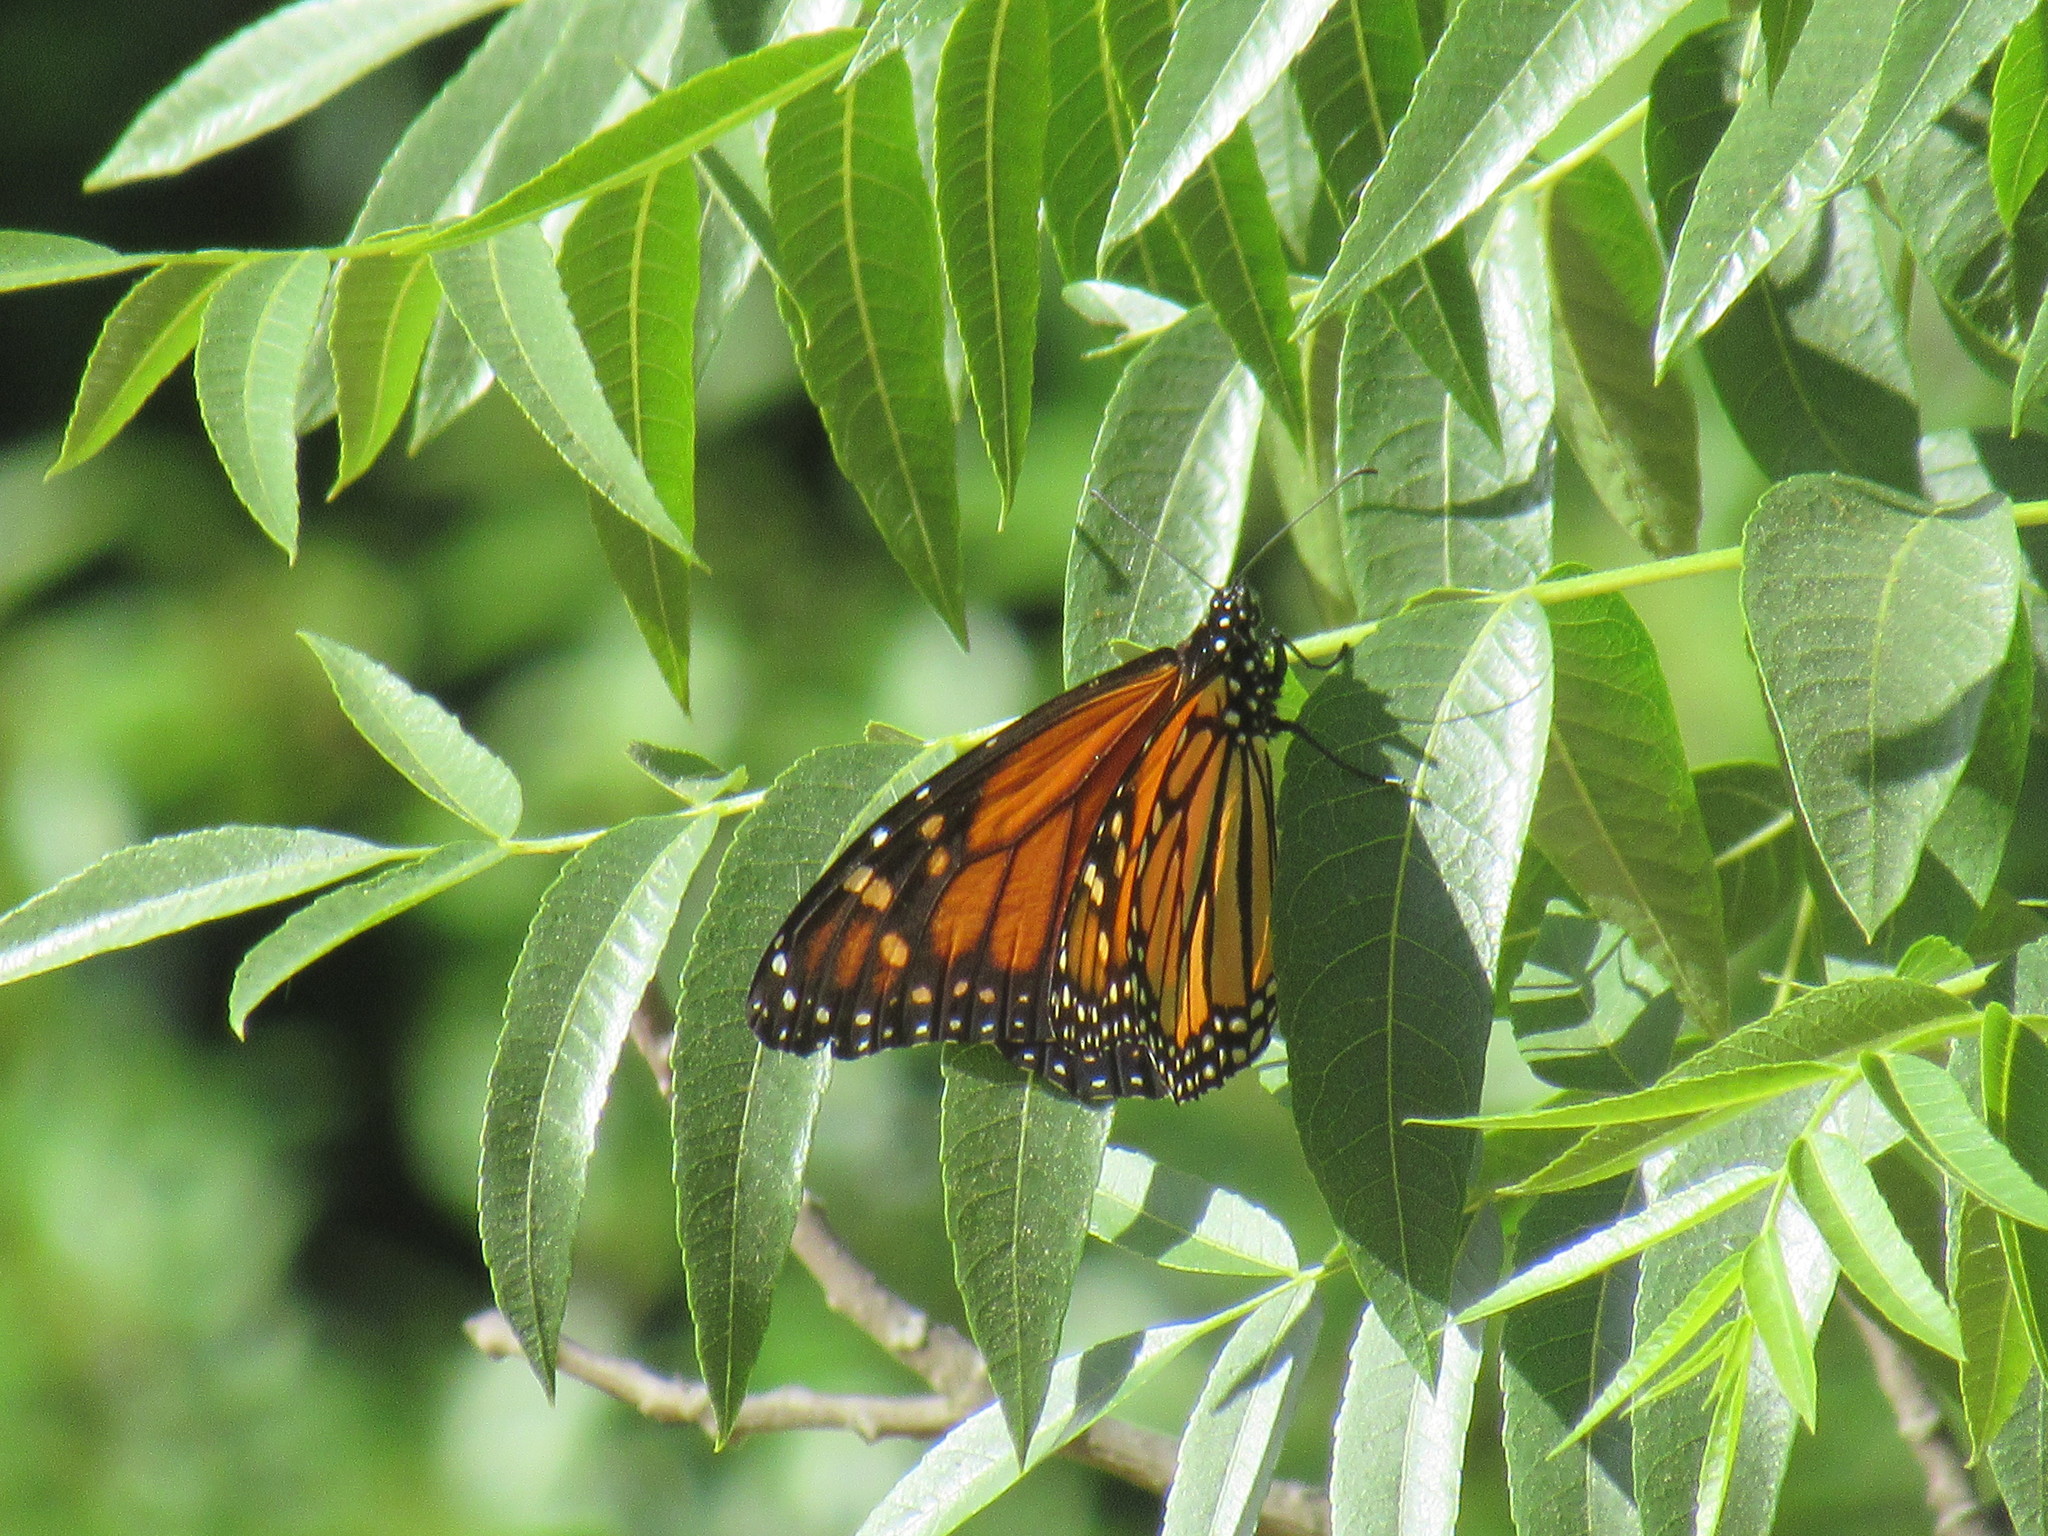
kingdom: Animalia
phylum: Arthropoda
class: Insecta
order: Lepidoptera
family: Nymphalidae
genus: Danaus
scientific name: Danaus plexippus
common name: Monarch
